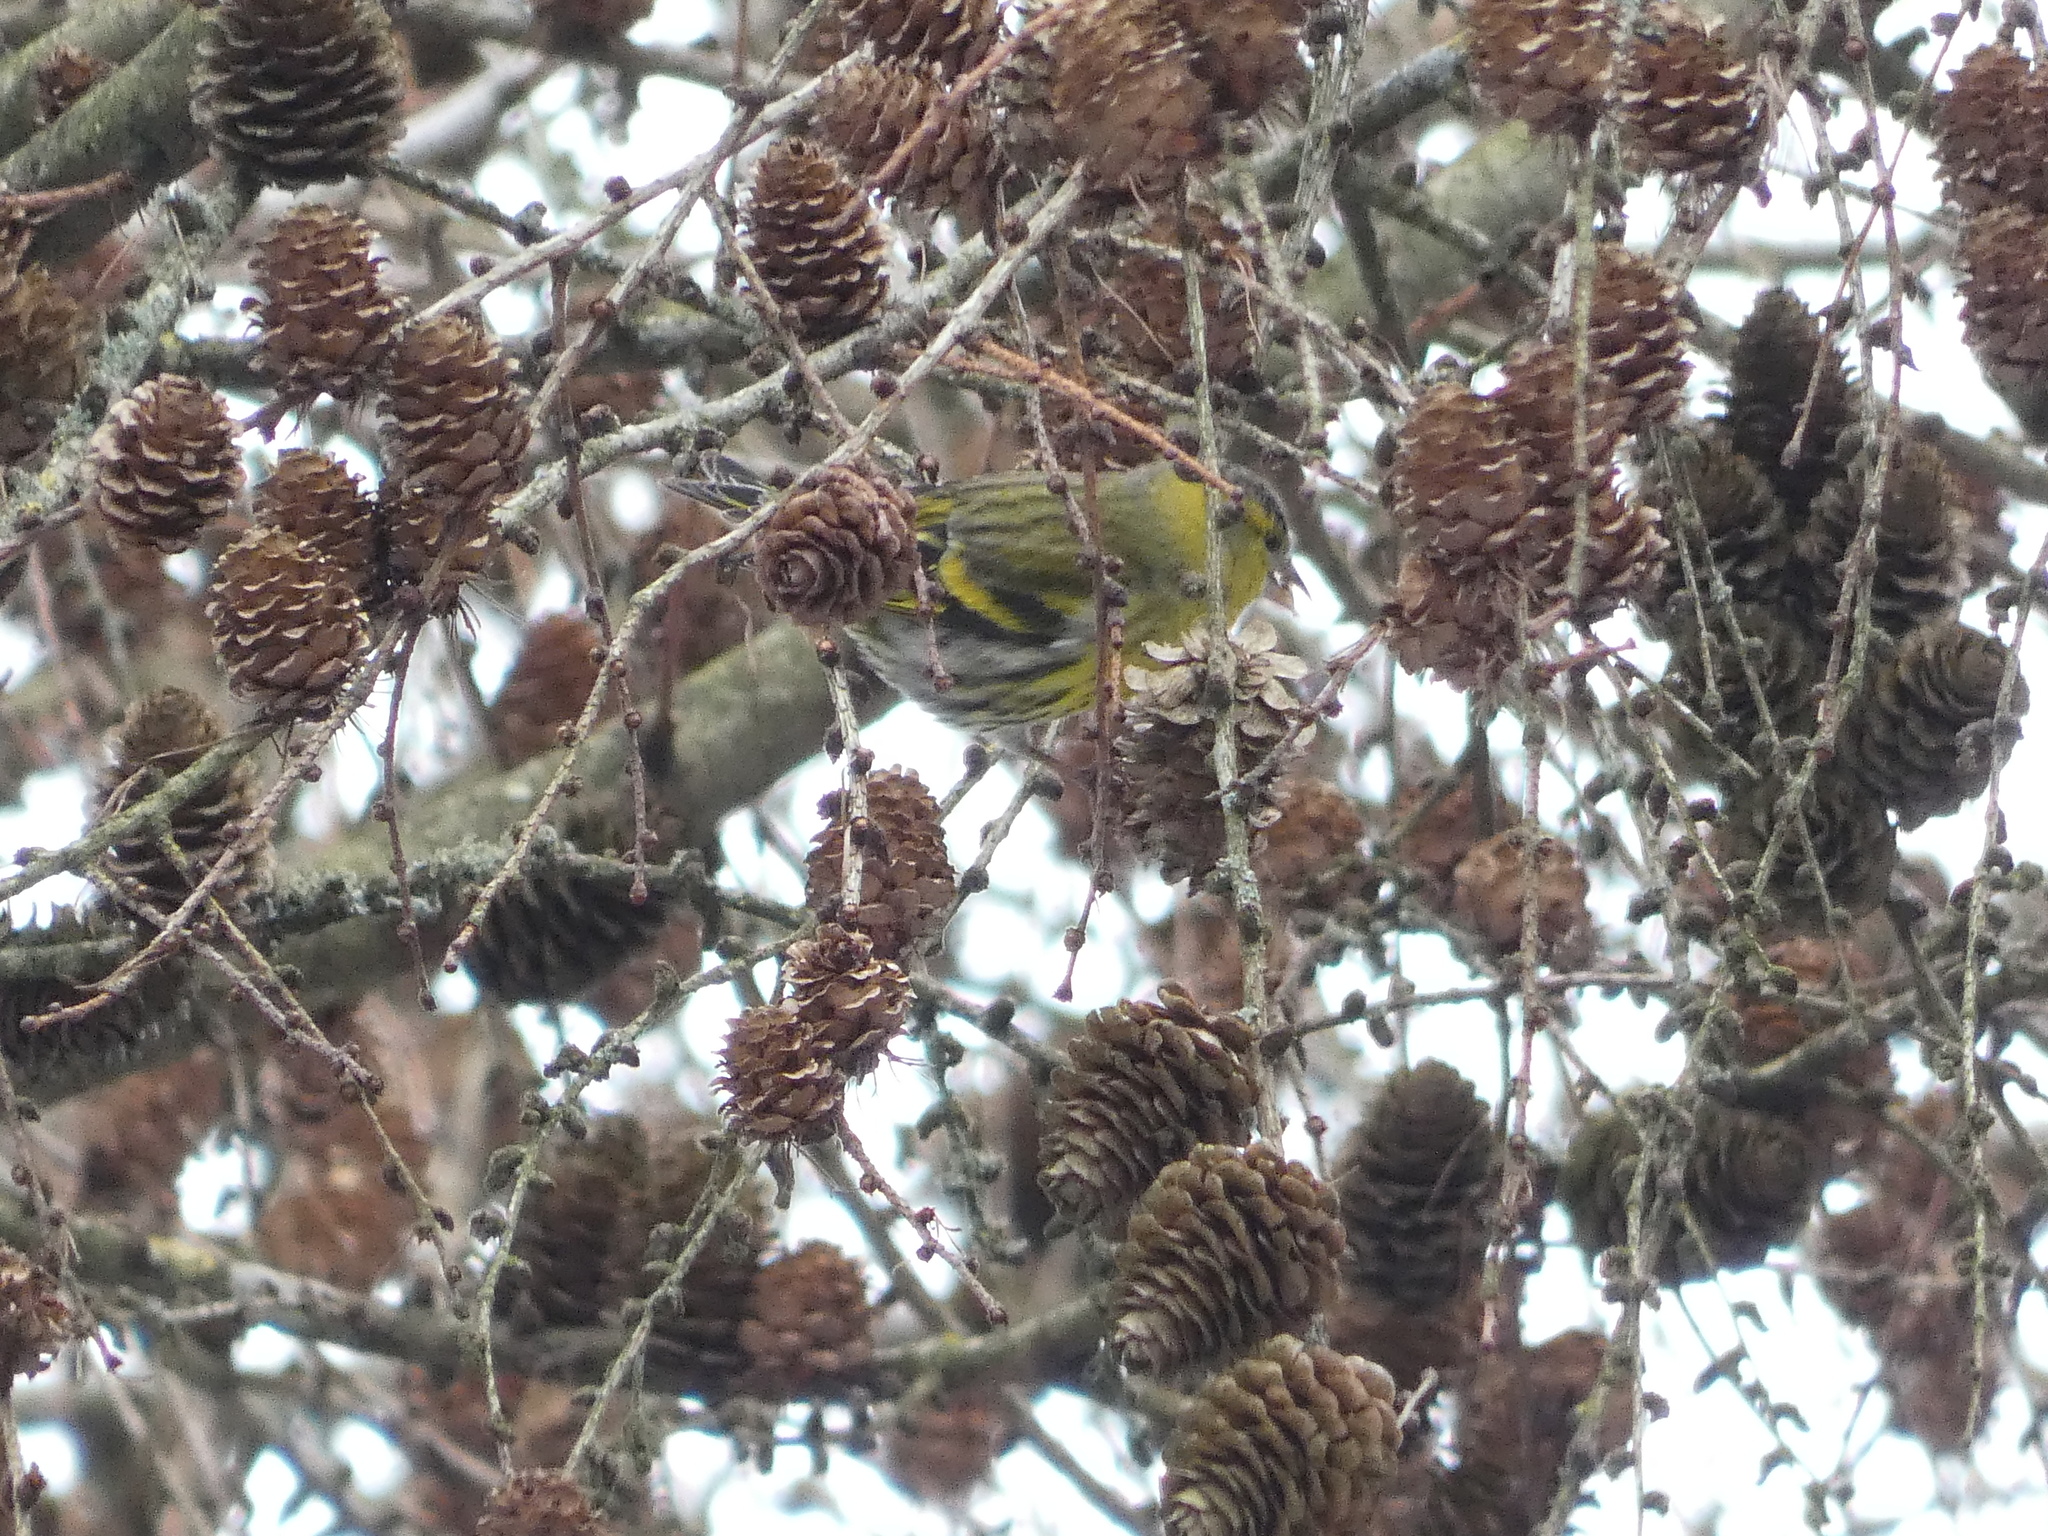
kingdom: Animalia
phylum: Chordata
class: Aves
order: Passeriformes
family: Fringillidae
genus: Spinus
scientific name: Spinus spinus
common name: Eurasian siskin
